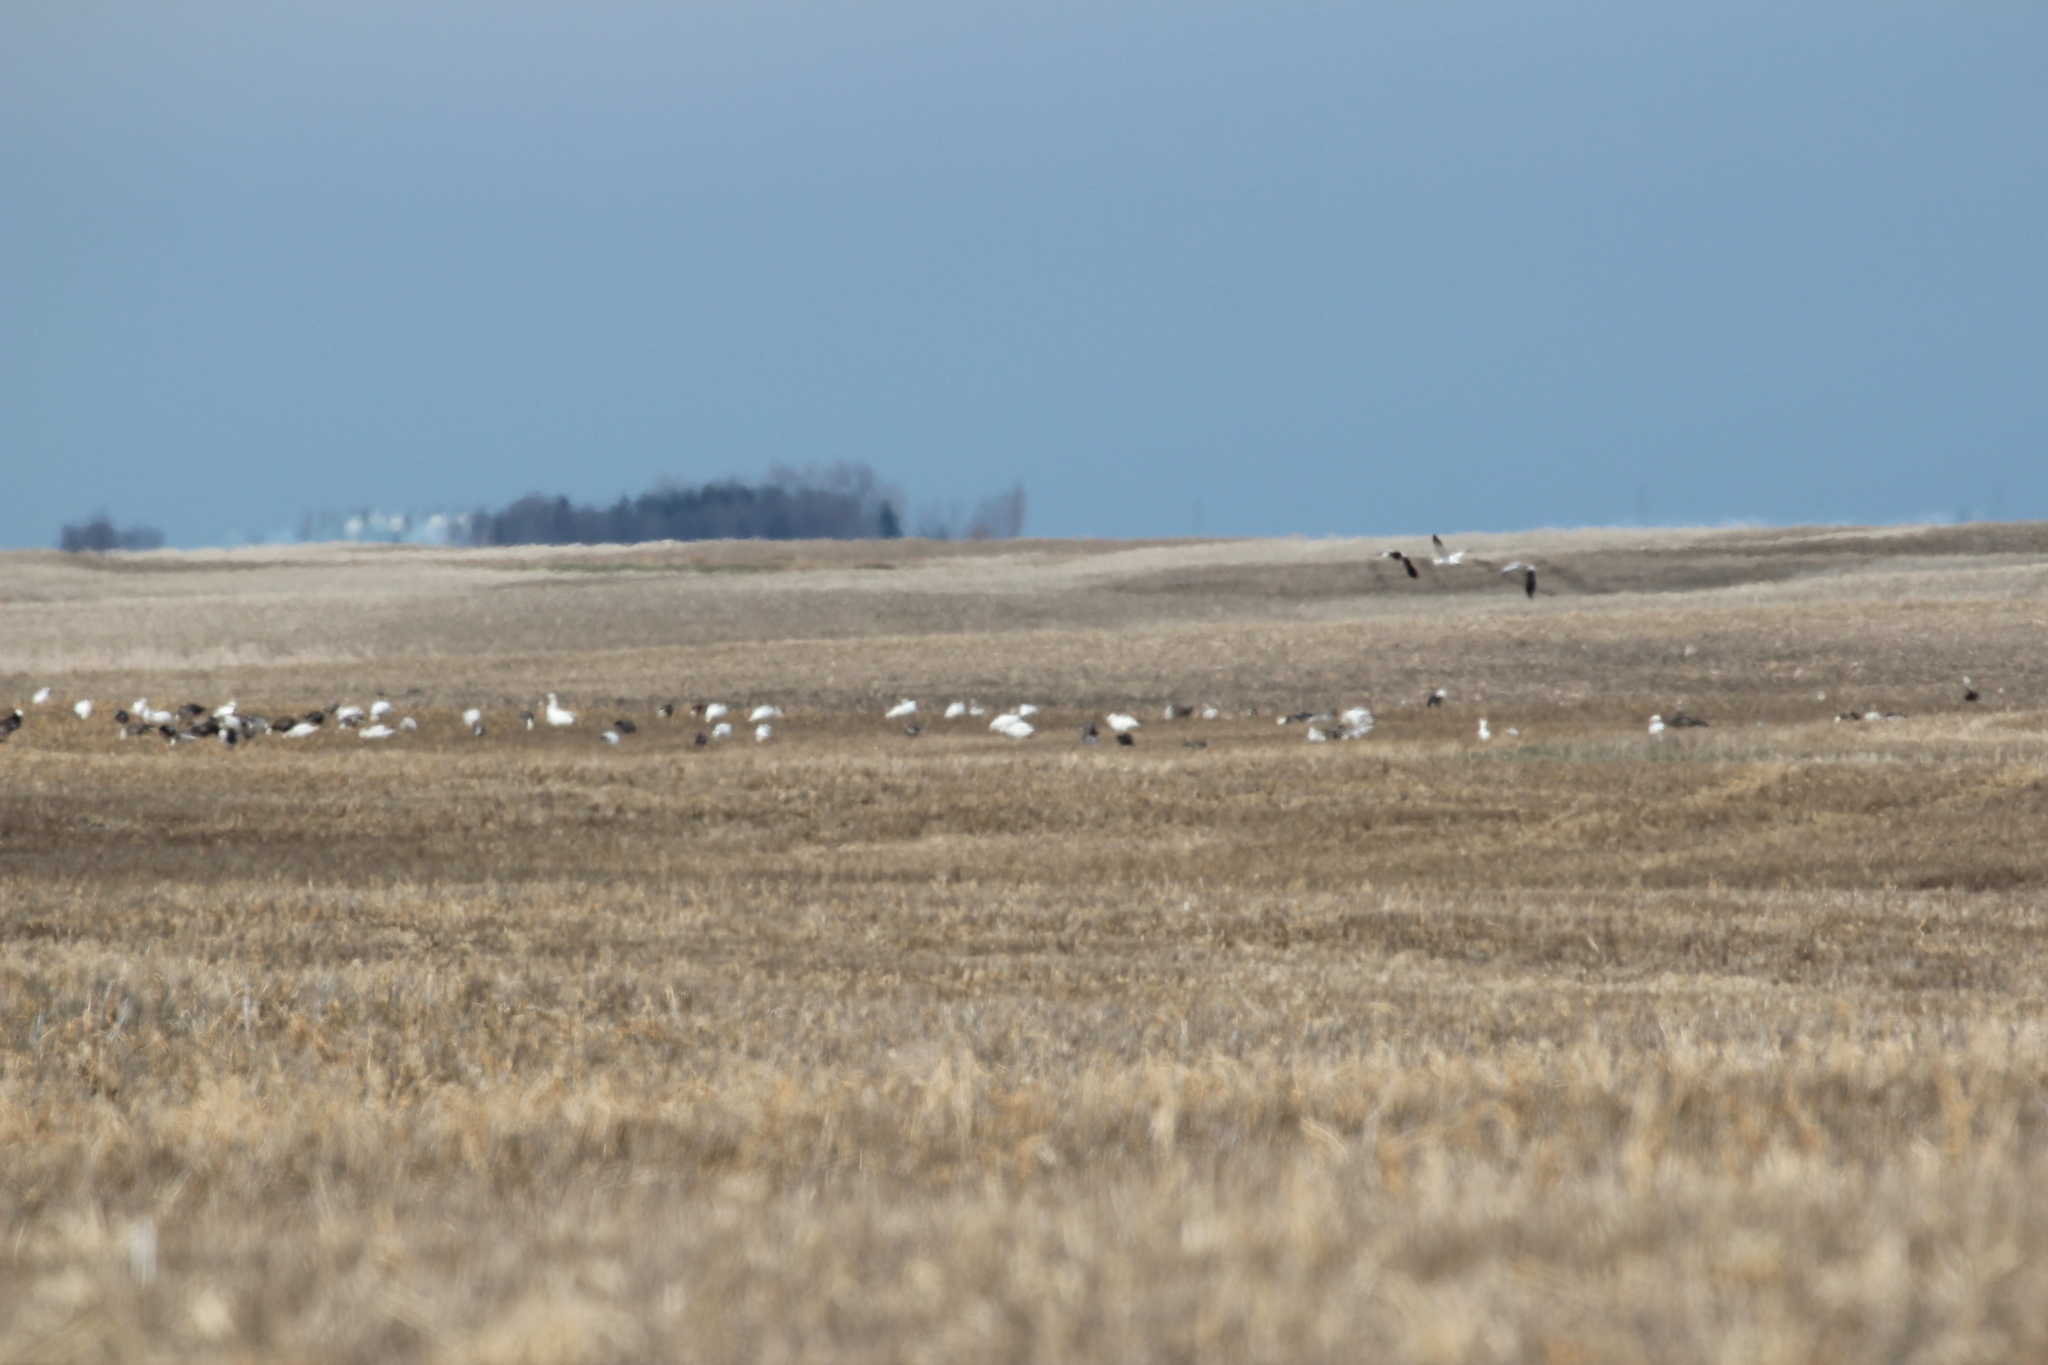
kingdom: Animalia
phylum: Chordata
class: Aves
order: Anseriformes
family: Anatidae
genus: Anser
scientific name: Anser caerulescens
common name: Snow goose
